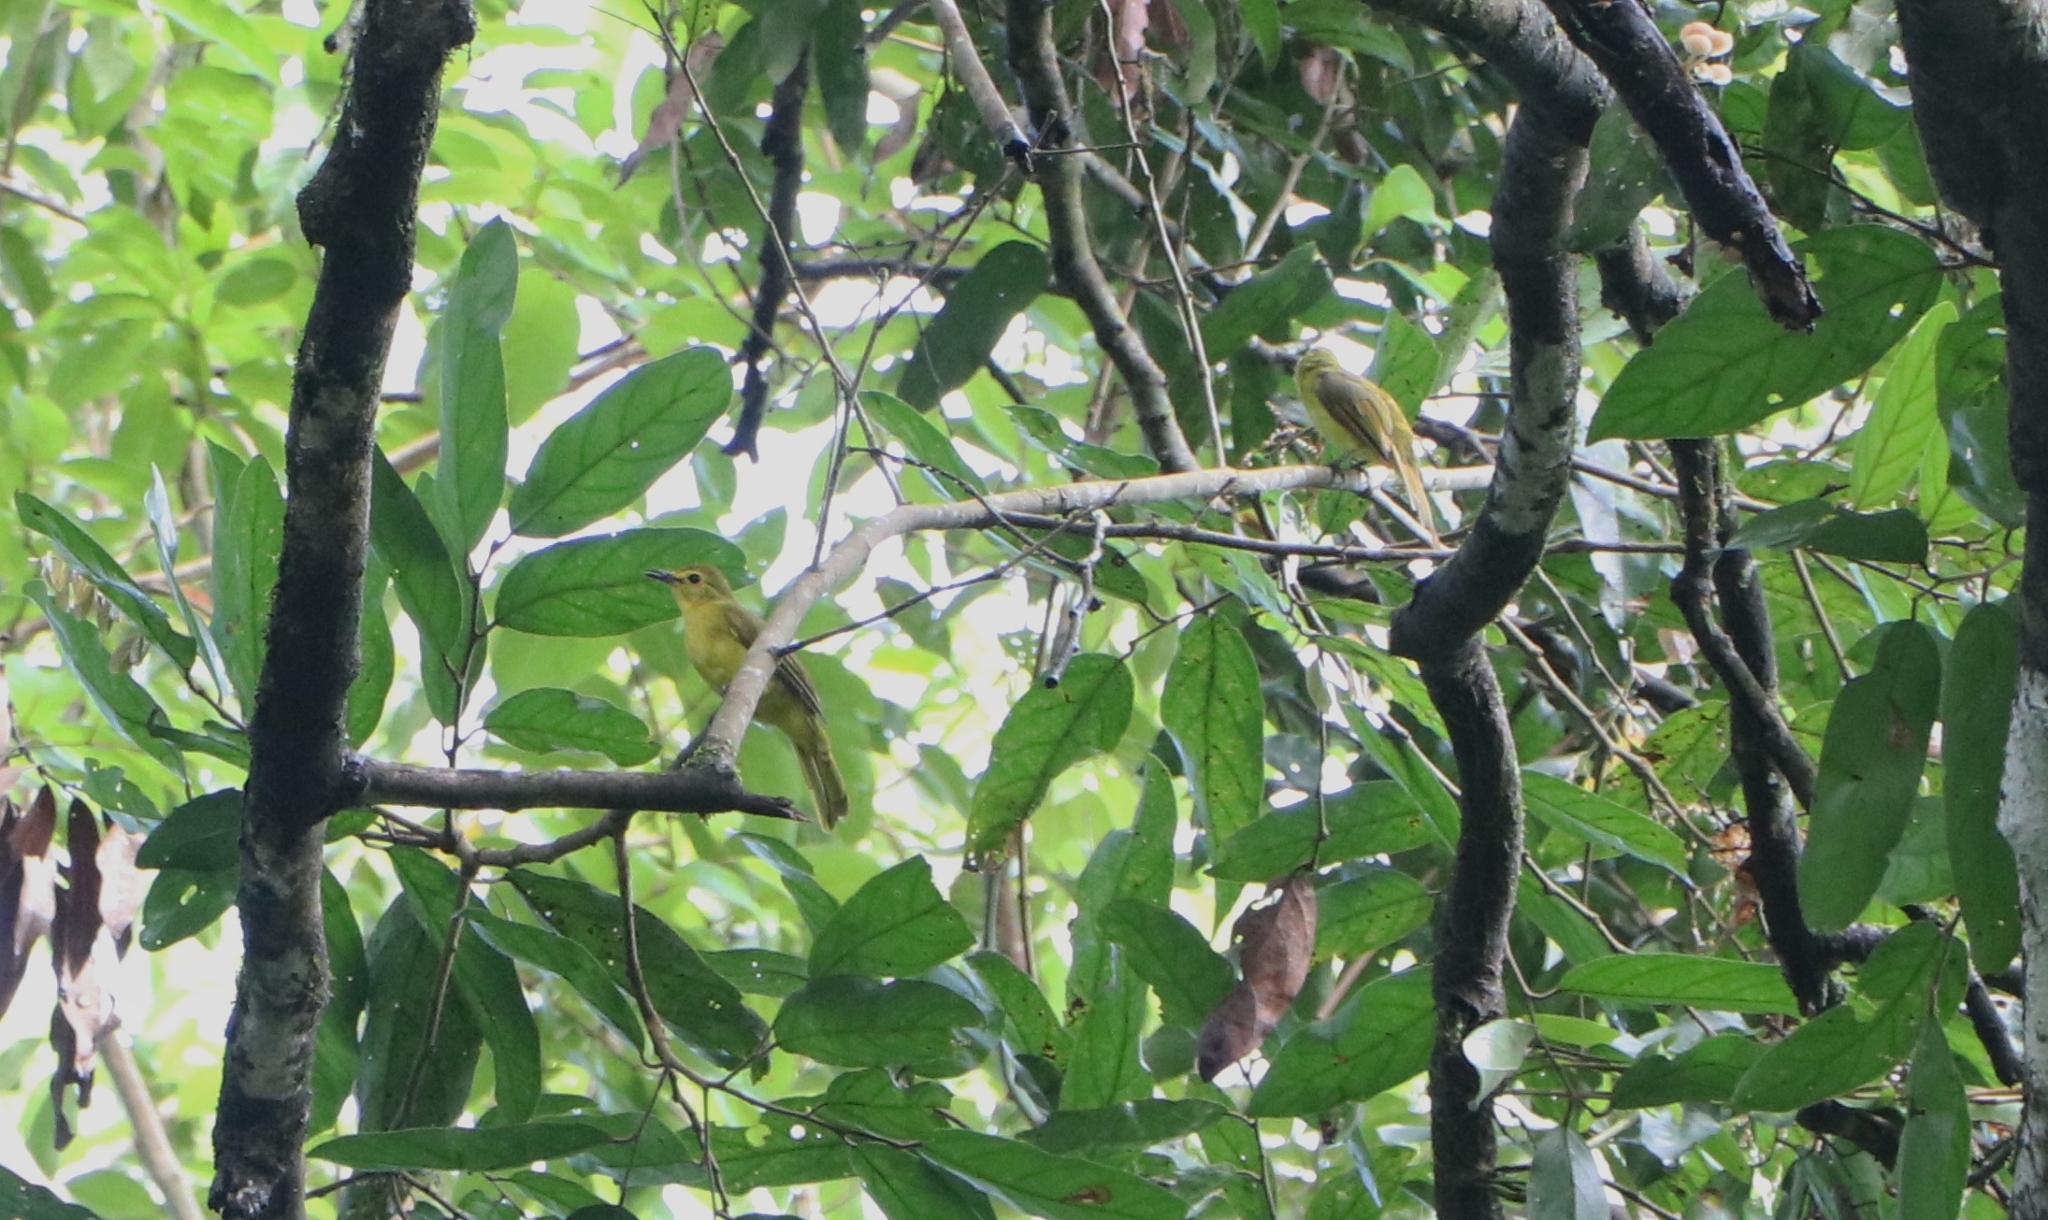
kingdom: Animalia
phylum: Chordata
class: Aves
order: Passeriformes
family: Pycnonotidae
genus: Acritillas
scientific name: Acritillas indica
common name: Yellow-browed bulbul
